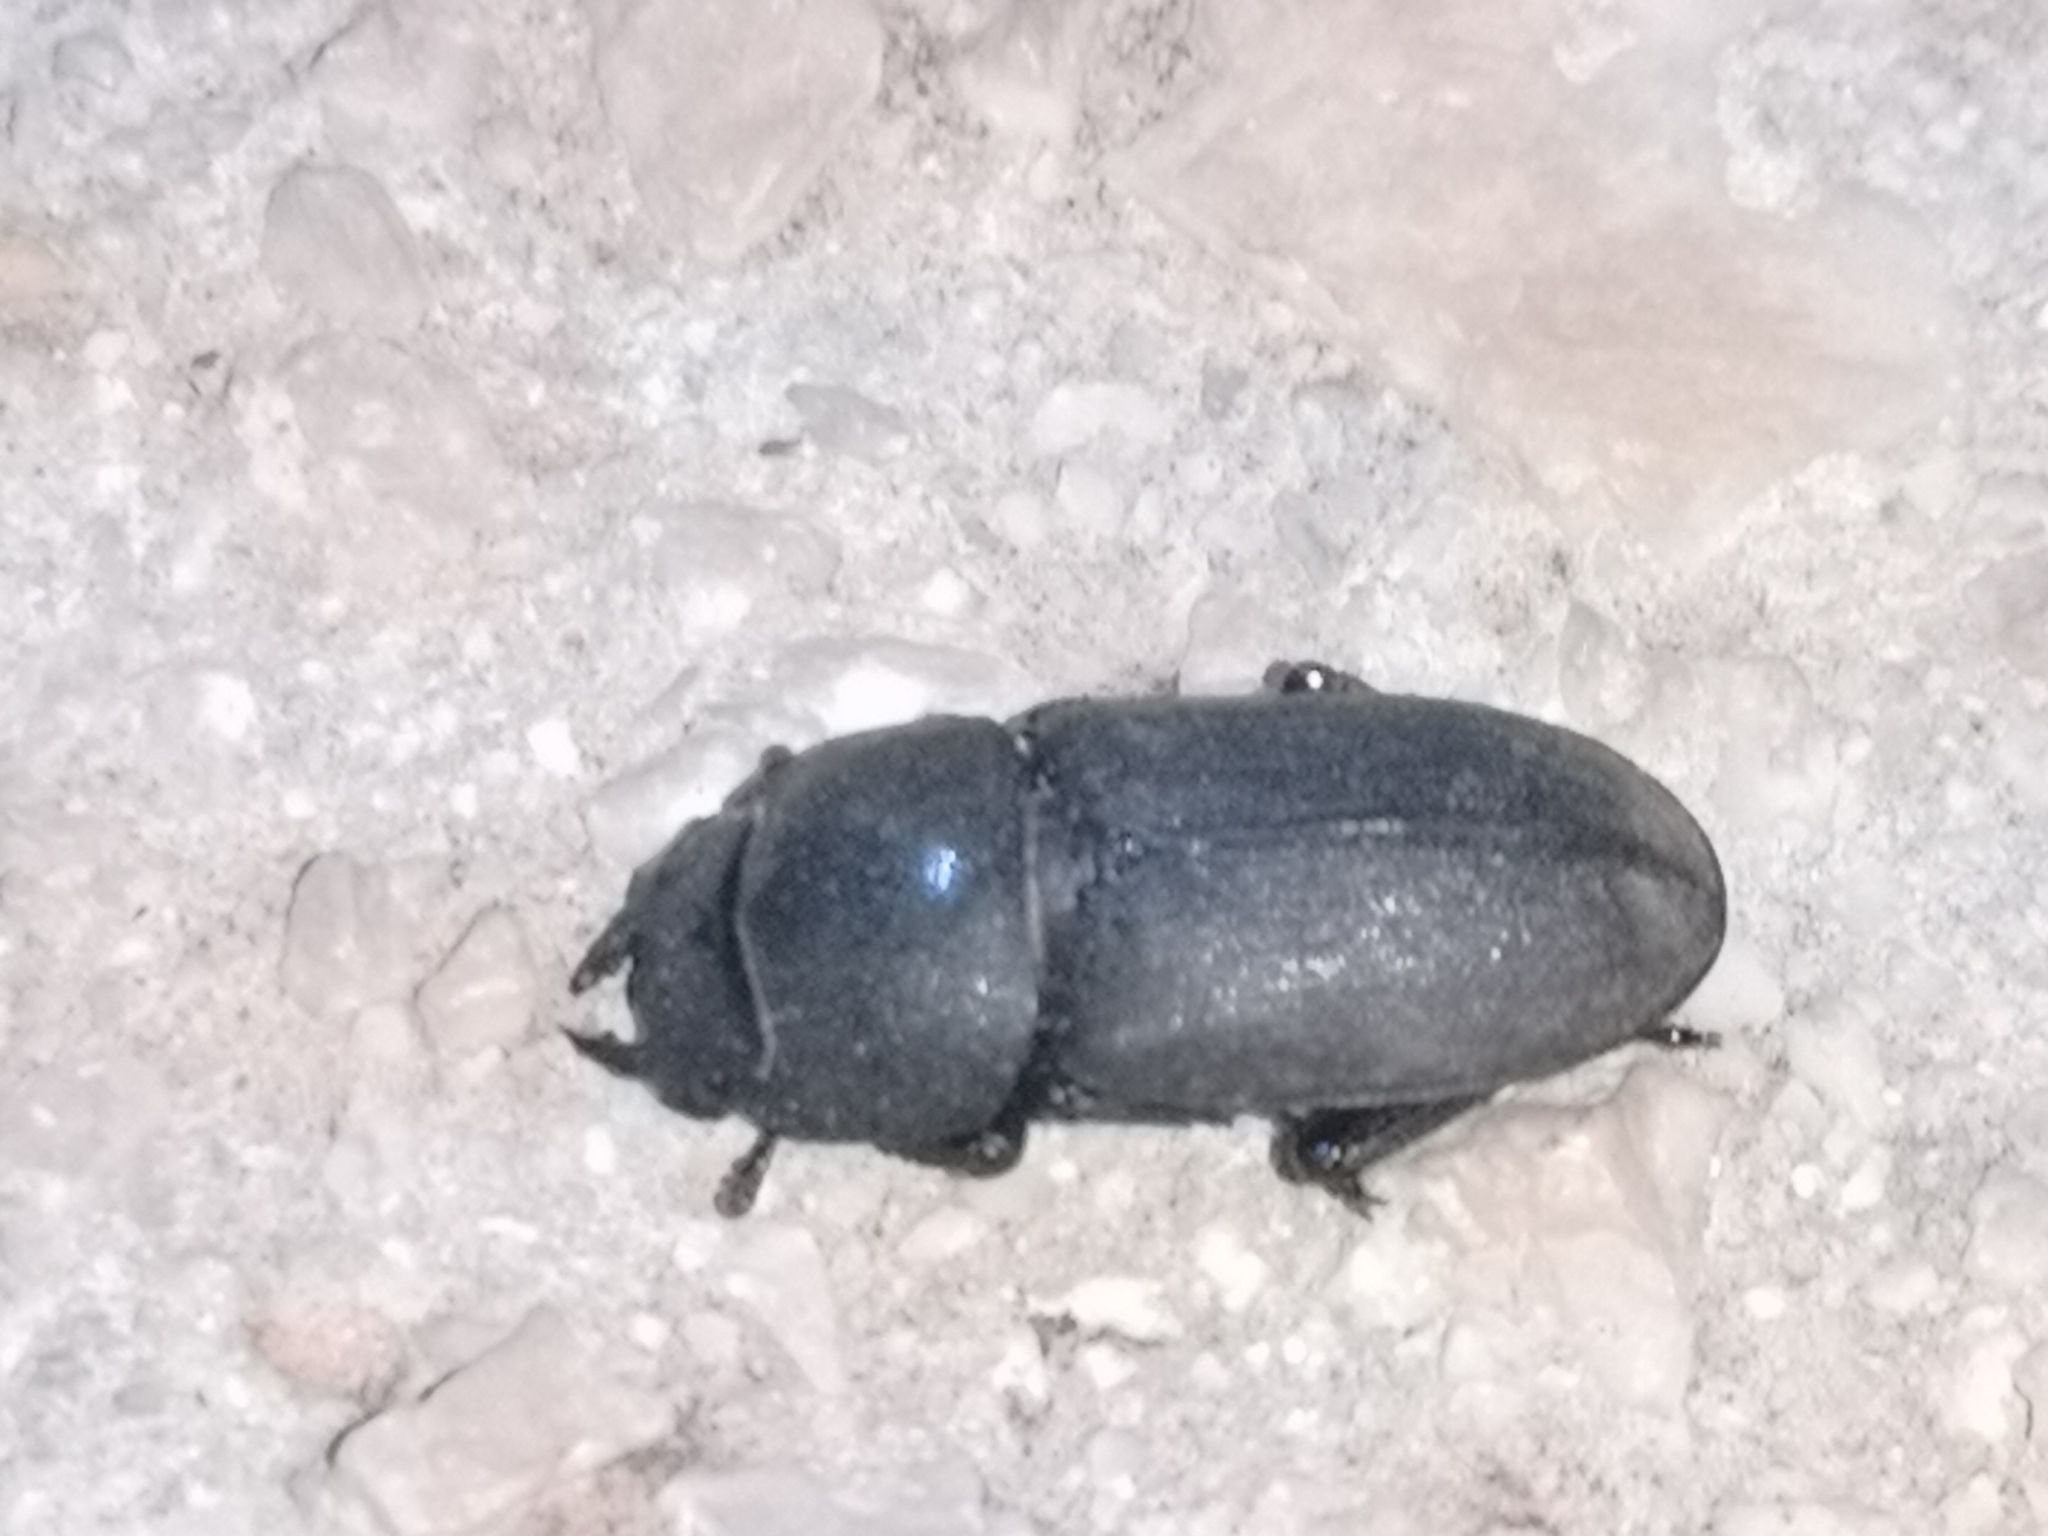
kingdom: Animalia
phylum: Arthropoda
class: Insecta
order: Coleoptera
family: Lucanidae
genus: Dorcus
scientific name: Dorcus parallelipipedus
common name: Lesser stag beetle
